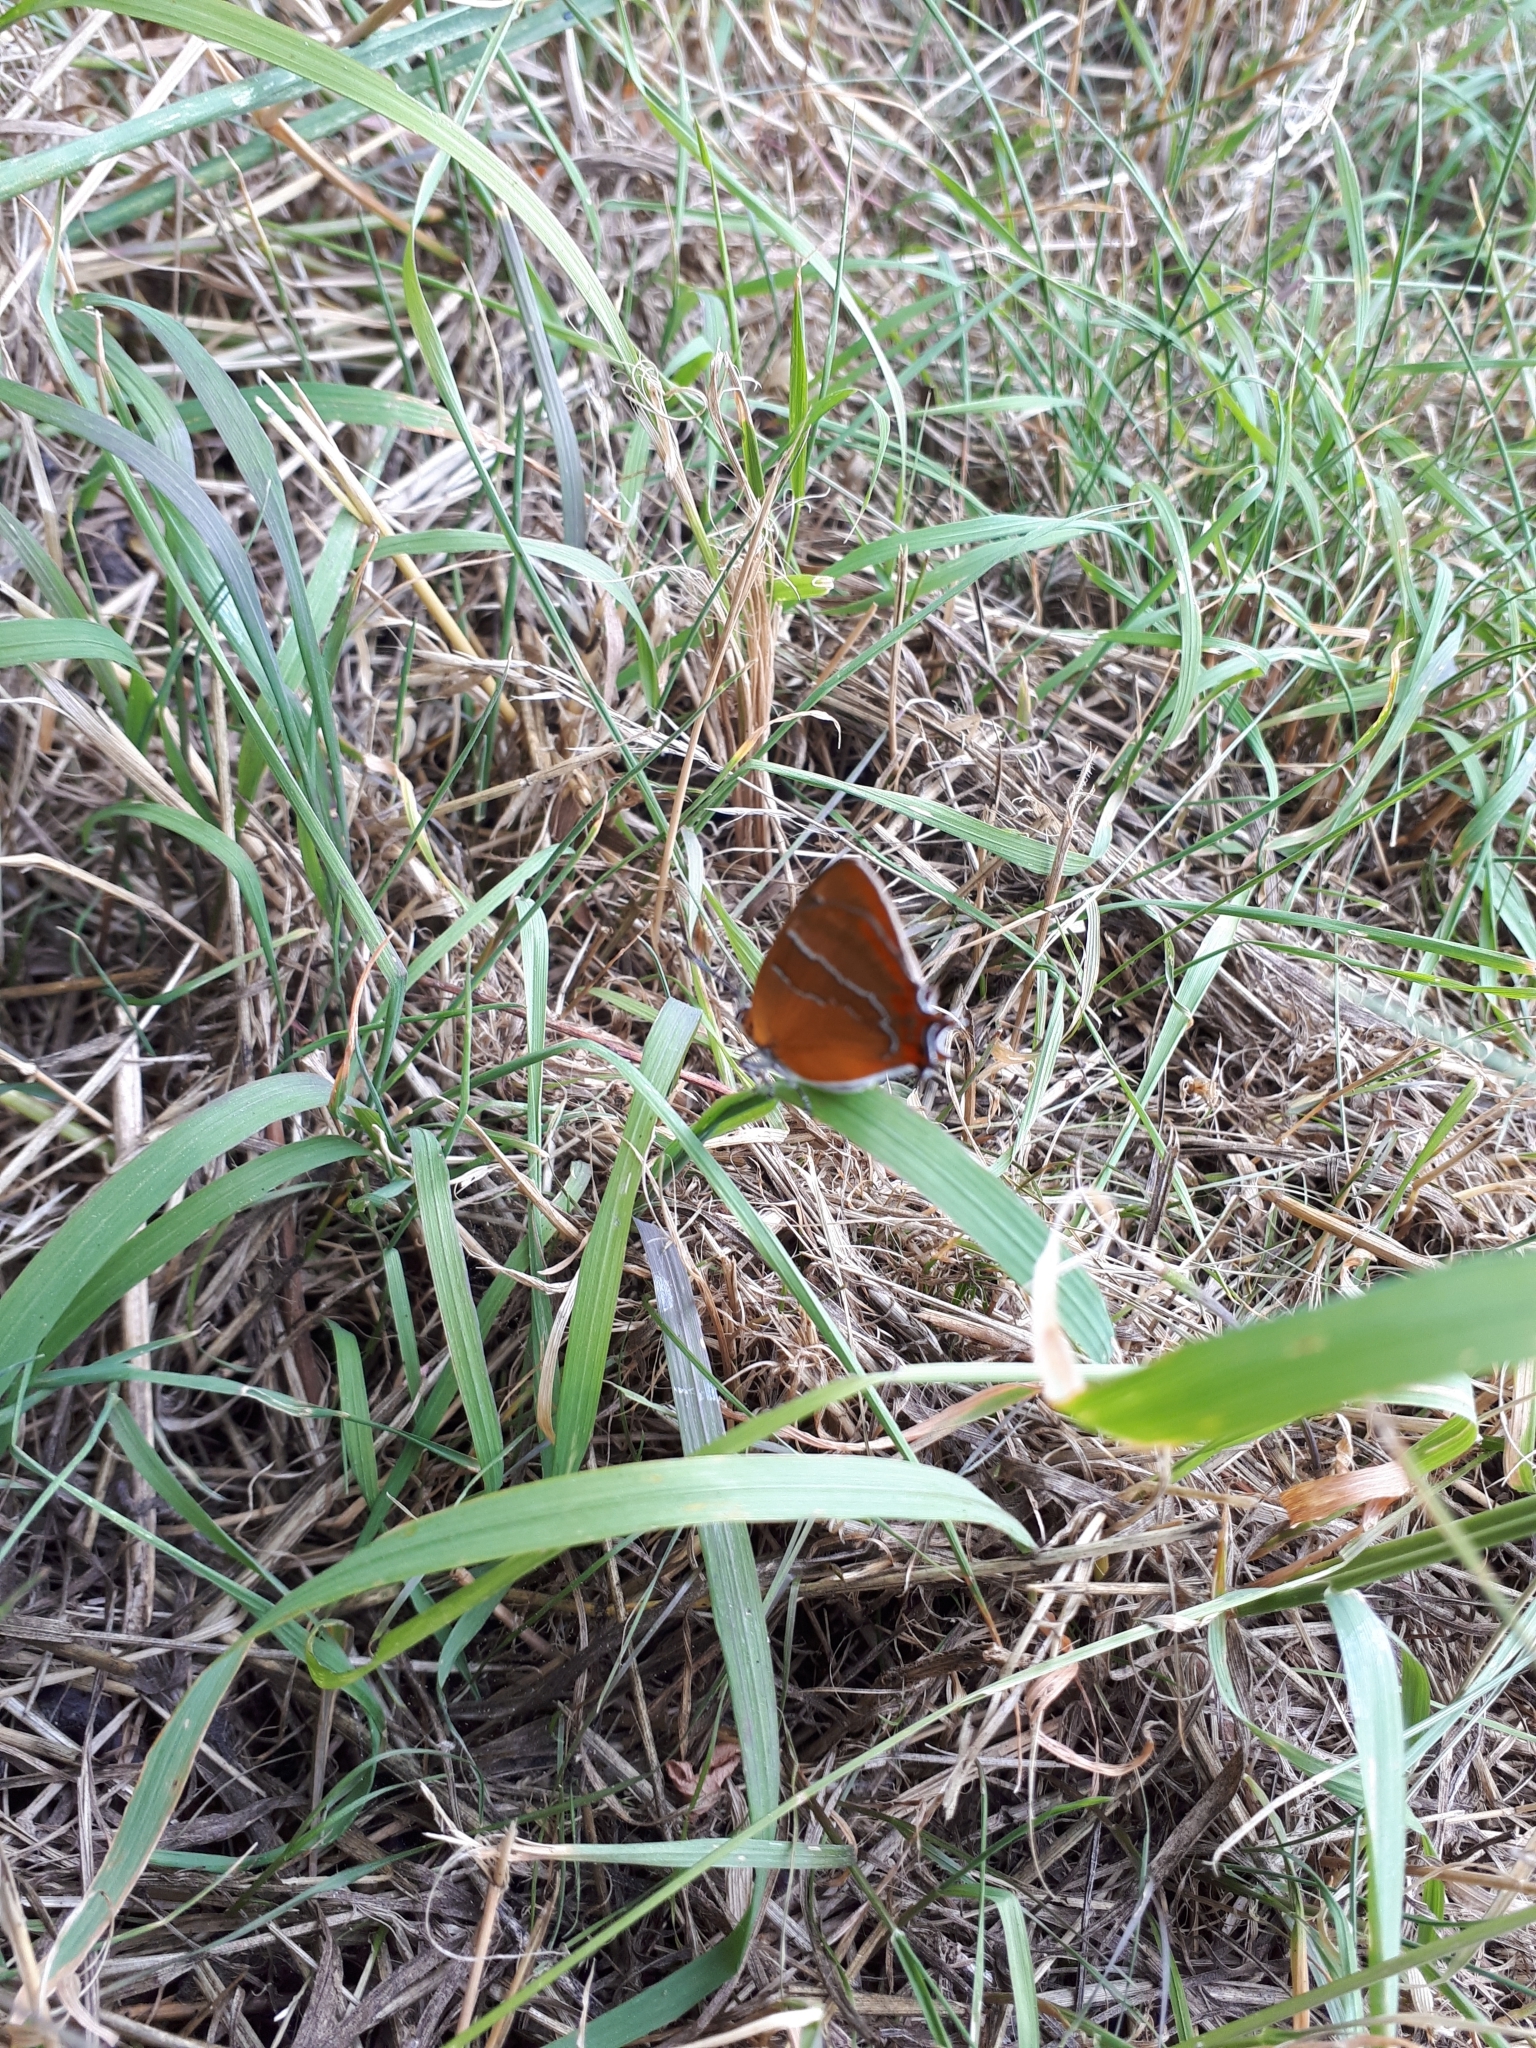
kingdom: Animalia
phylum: Arthropoda
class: Insecta
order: Lepidoptera
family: Lycaenidae
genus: Thecla
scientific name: Thecla betulae
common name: Brown hairstreak
